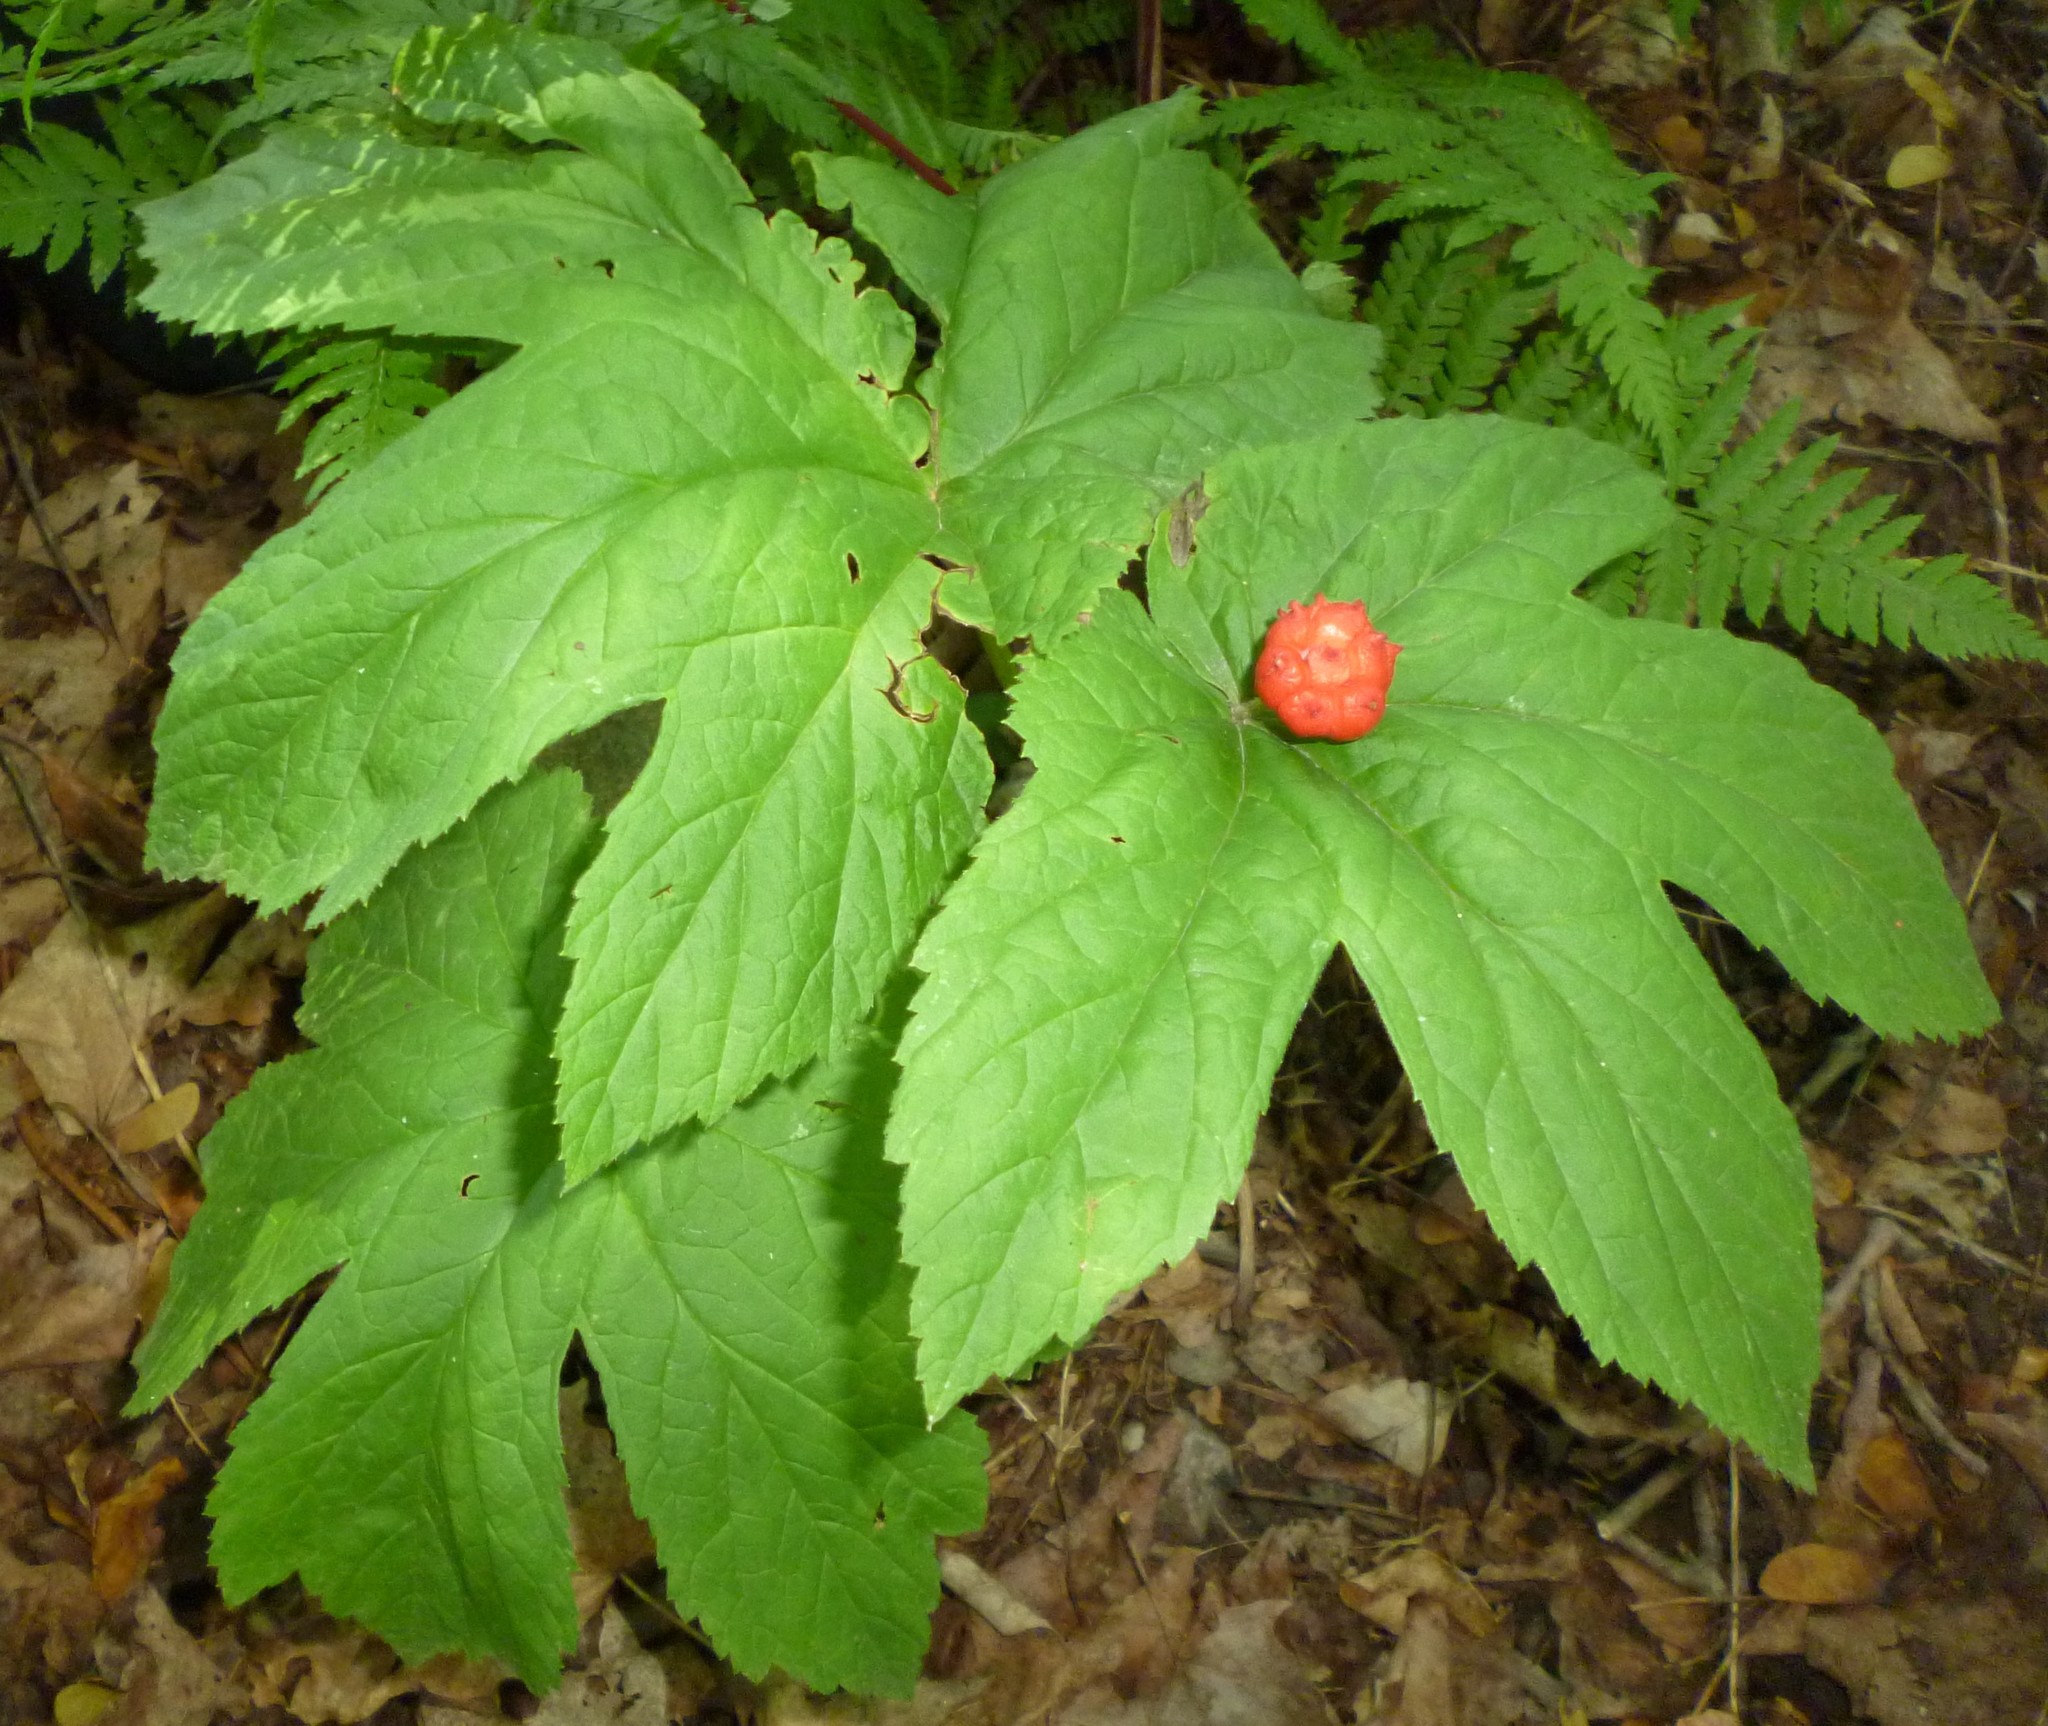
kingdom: Plantae
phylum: Tracheophyta
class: Magnoliopsida
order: Ranunculales
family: Ranunculaceae
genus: Hydrastis
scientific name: Hydrastis canadensis
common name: Goldenseal
